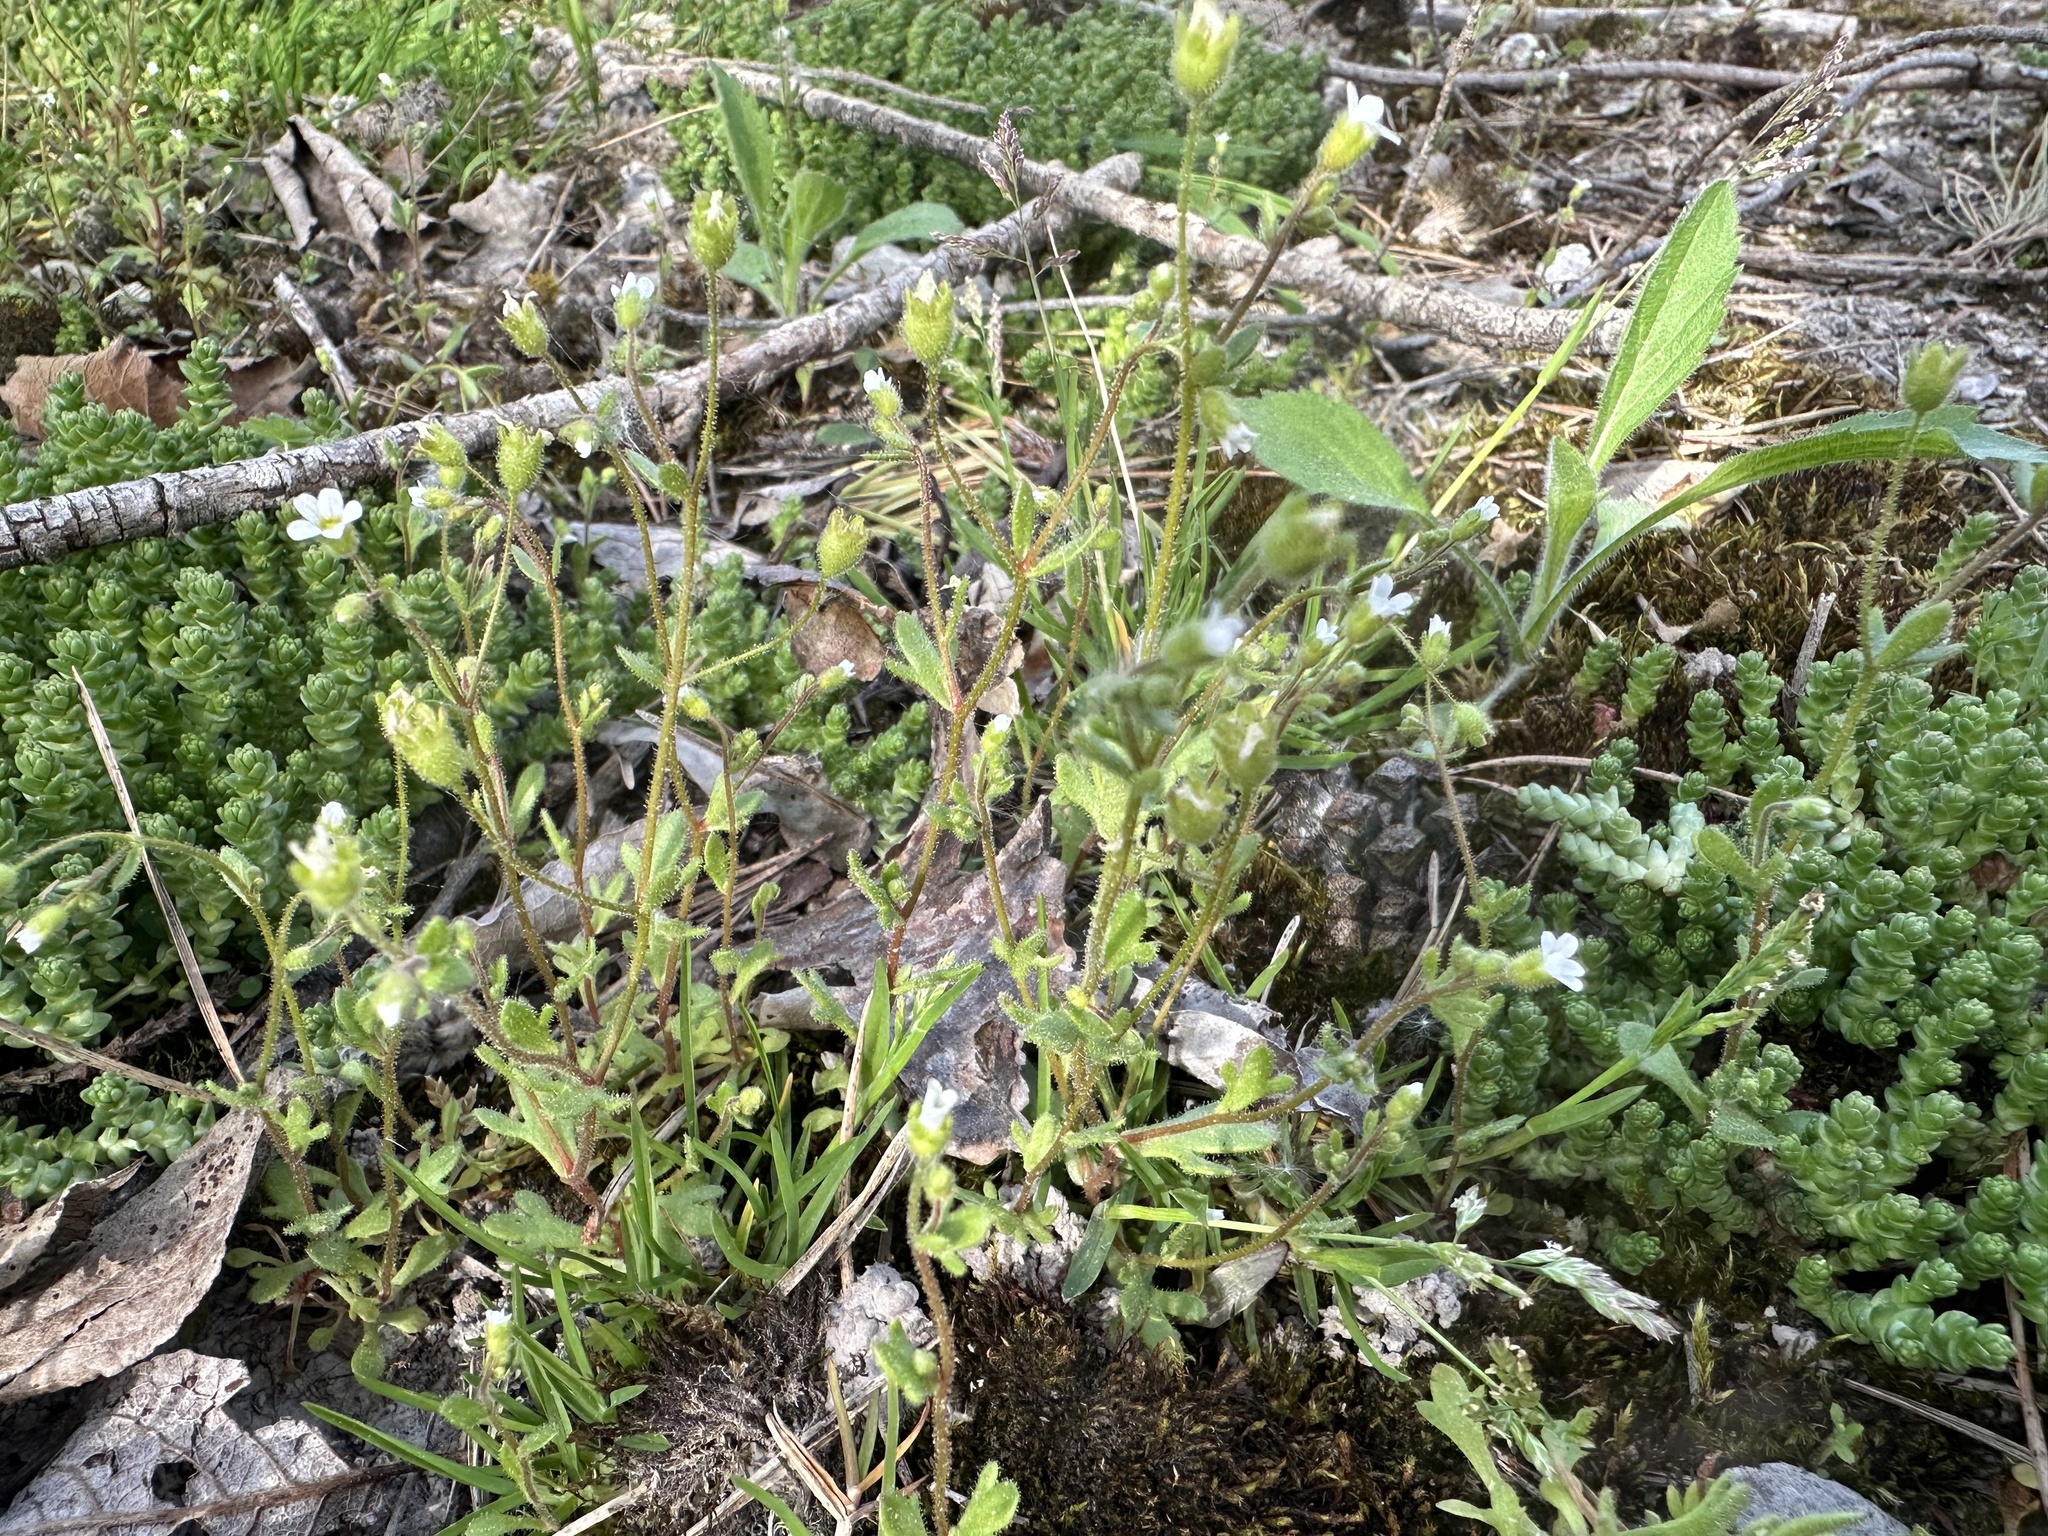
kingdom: Plantae
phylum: Tracheophyta
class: Magnoliopsida
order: Saxifragales
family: Saxifragaceae
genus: Saxifraga
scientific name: Saxifraga tridactylites
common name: Rue-leaved saxifrage
